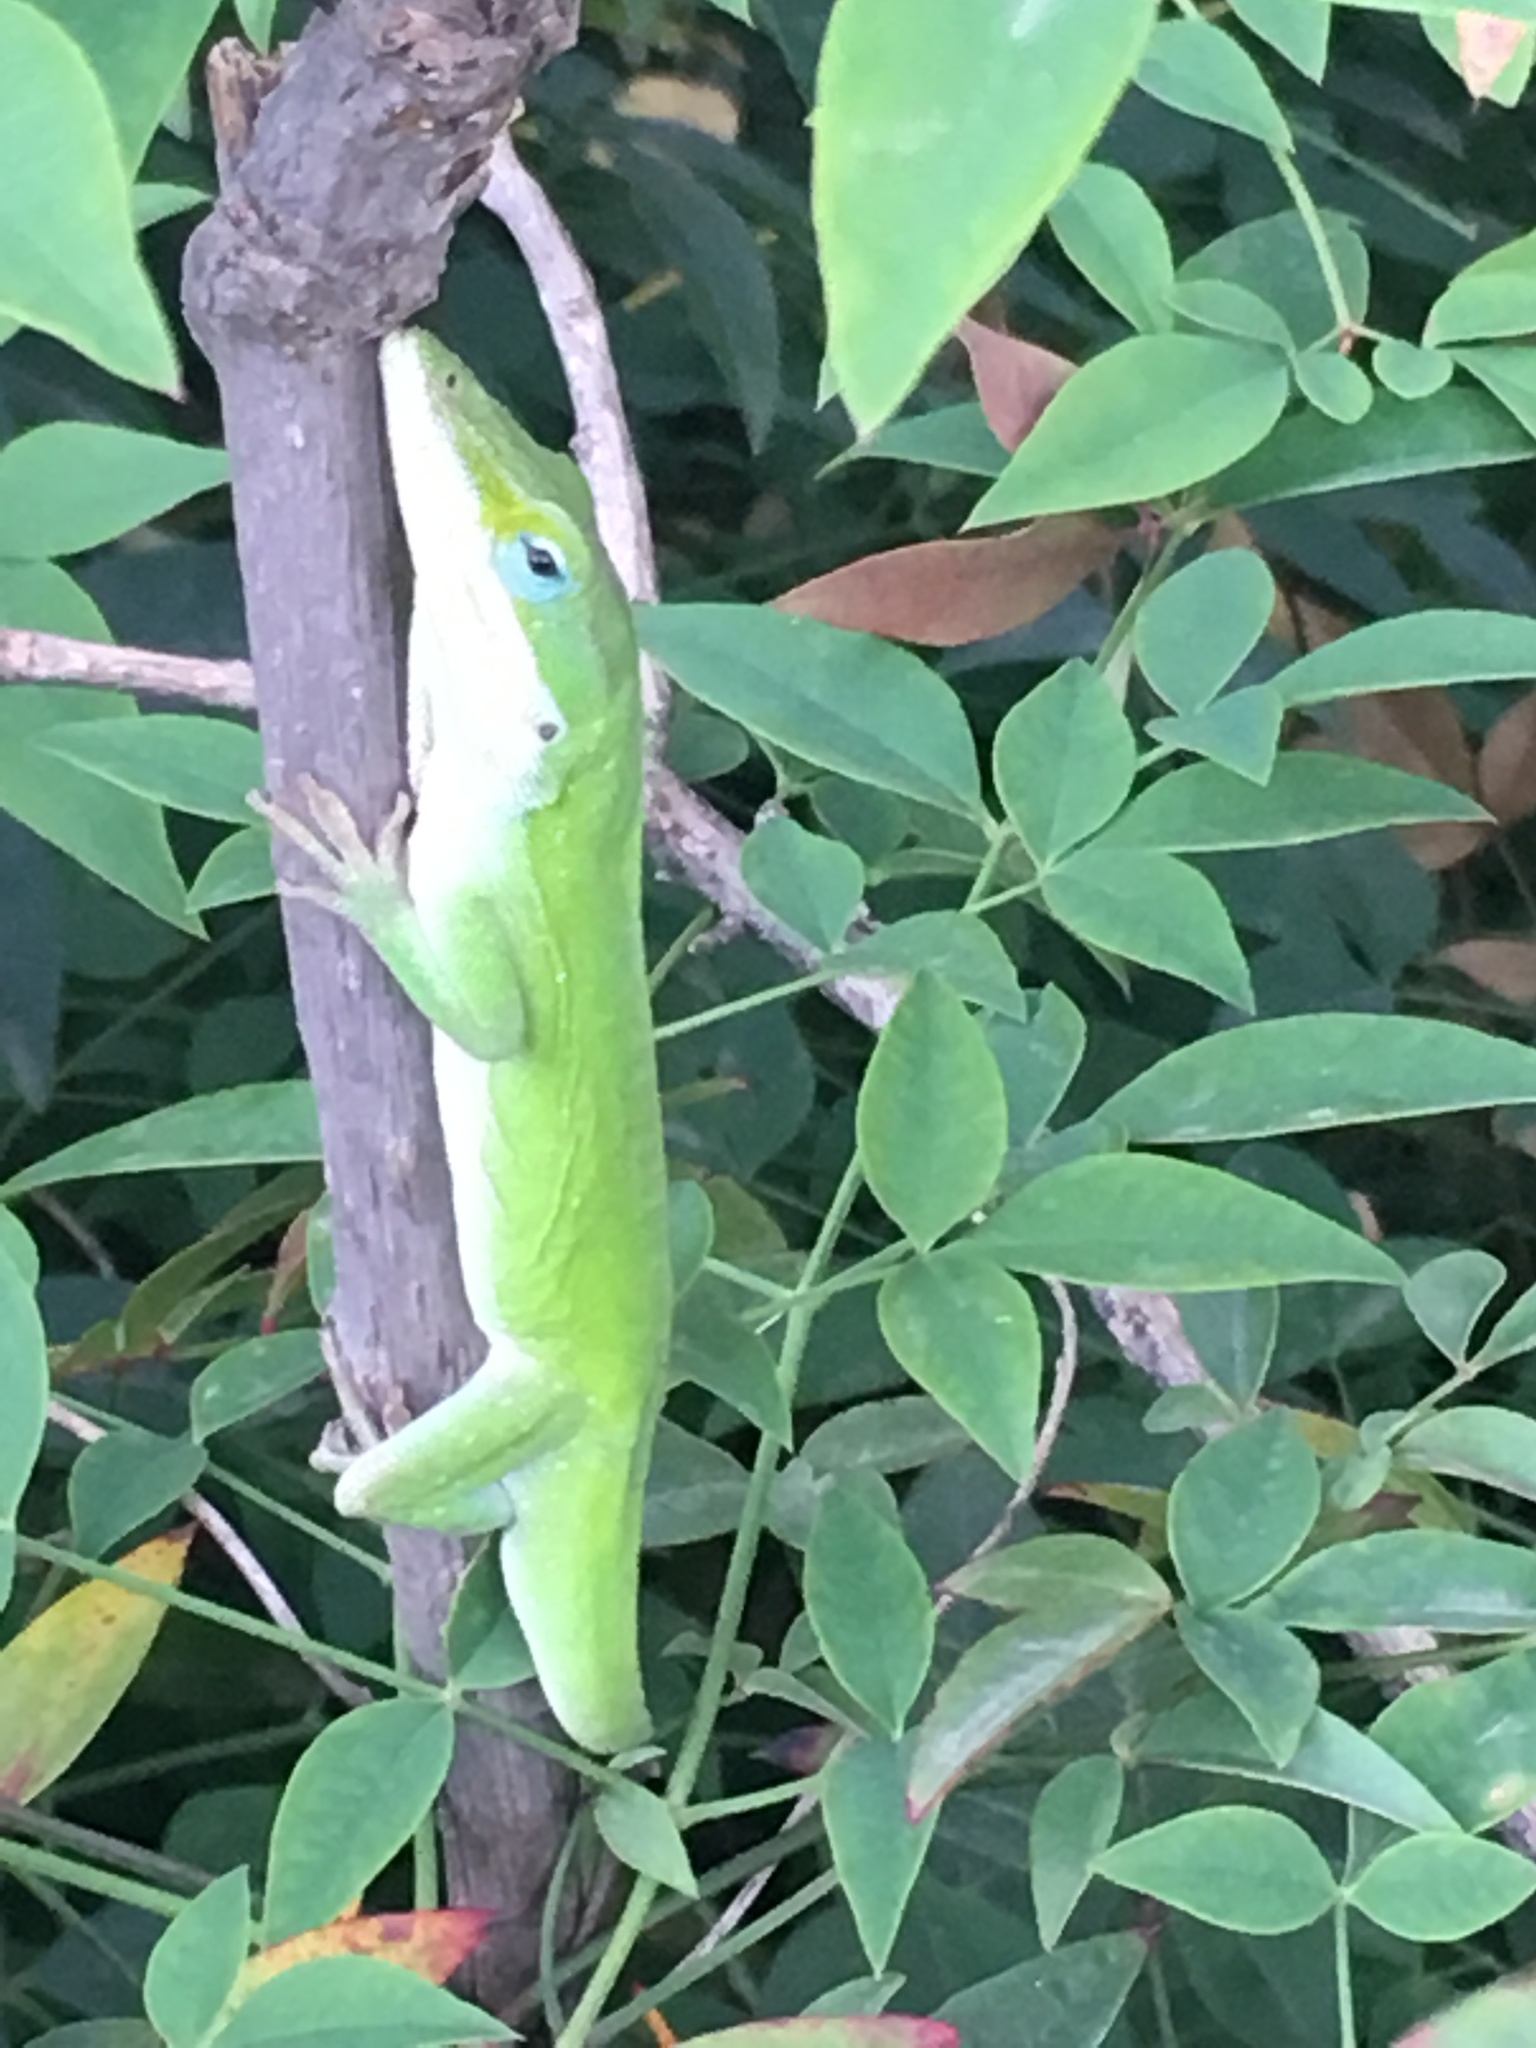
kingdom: Animalia
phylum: Chordata
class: Squamata
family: Dactyloidae
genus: Anolis
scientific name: Anolis carolinensis
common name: Green anole
